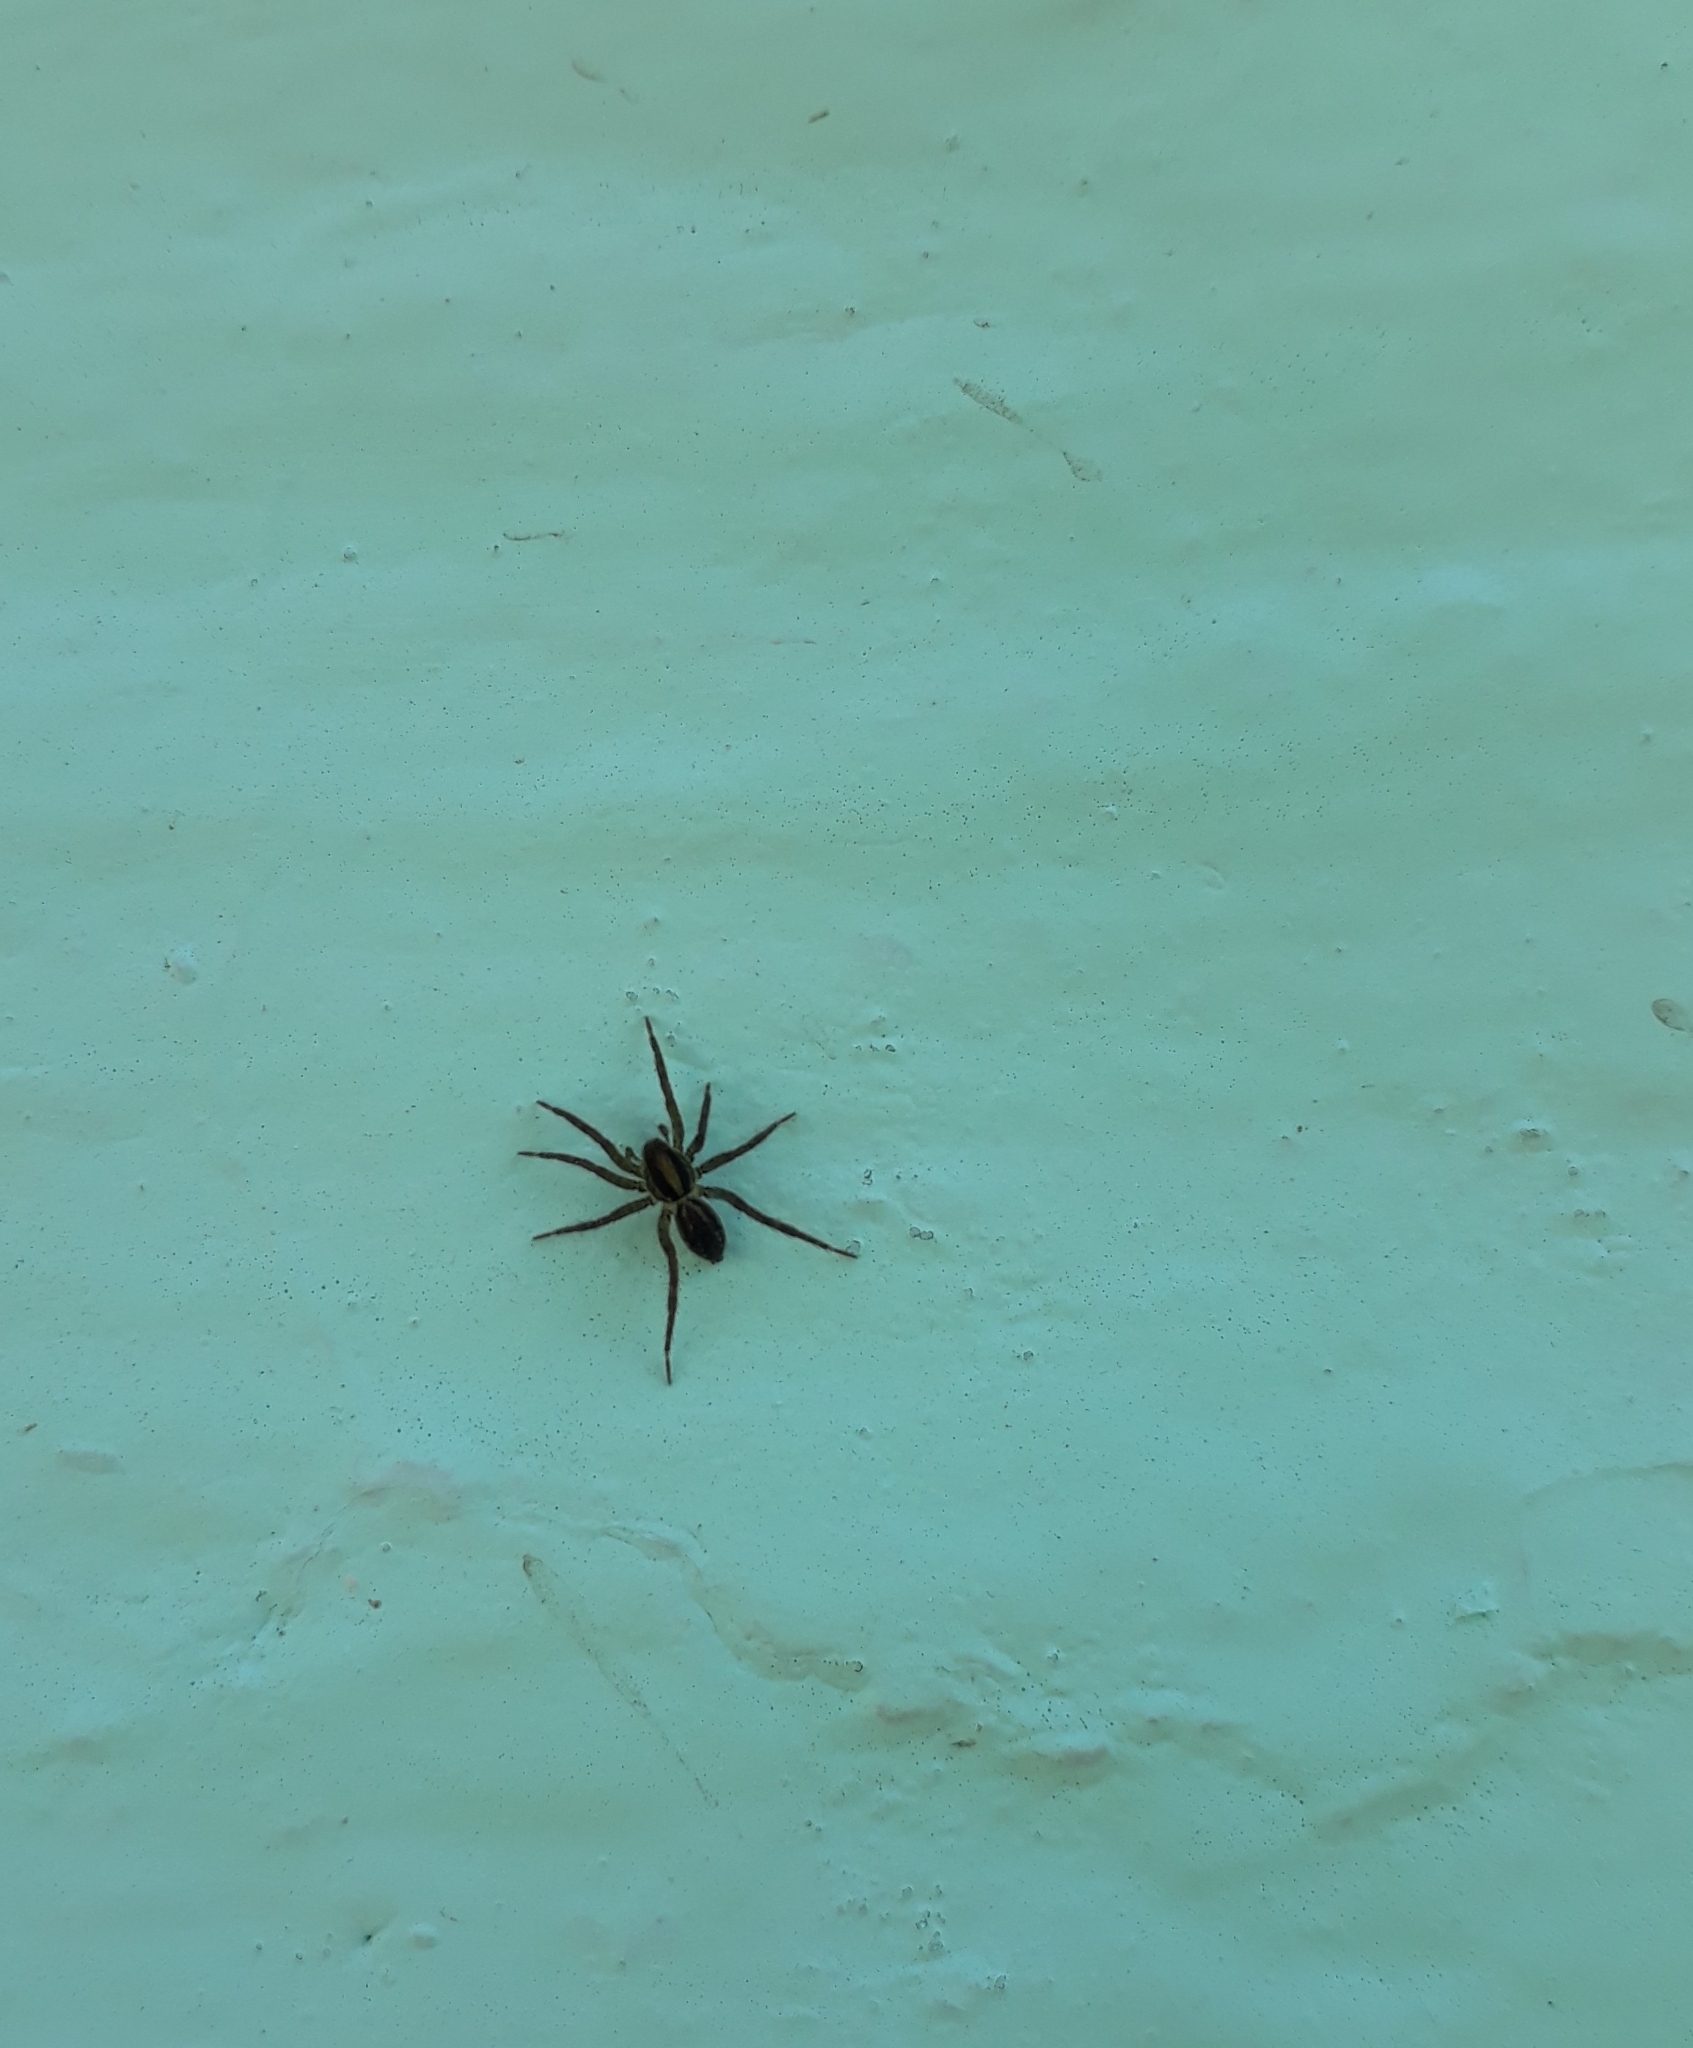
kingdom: Animalia
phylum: Arthropoda
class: Arachnida
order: Araneae
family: Lycosidae
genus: Alopecosa
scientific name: Alopecosa moesta
